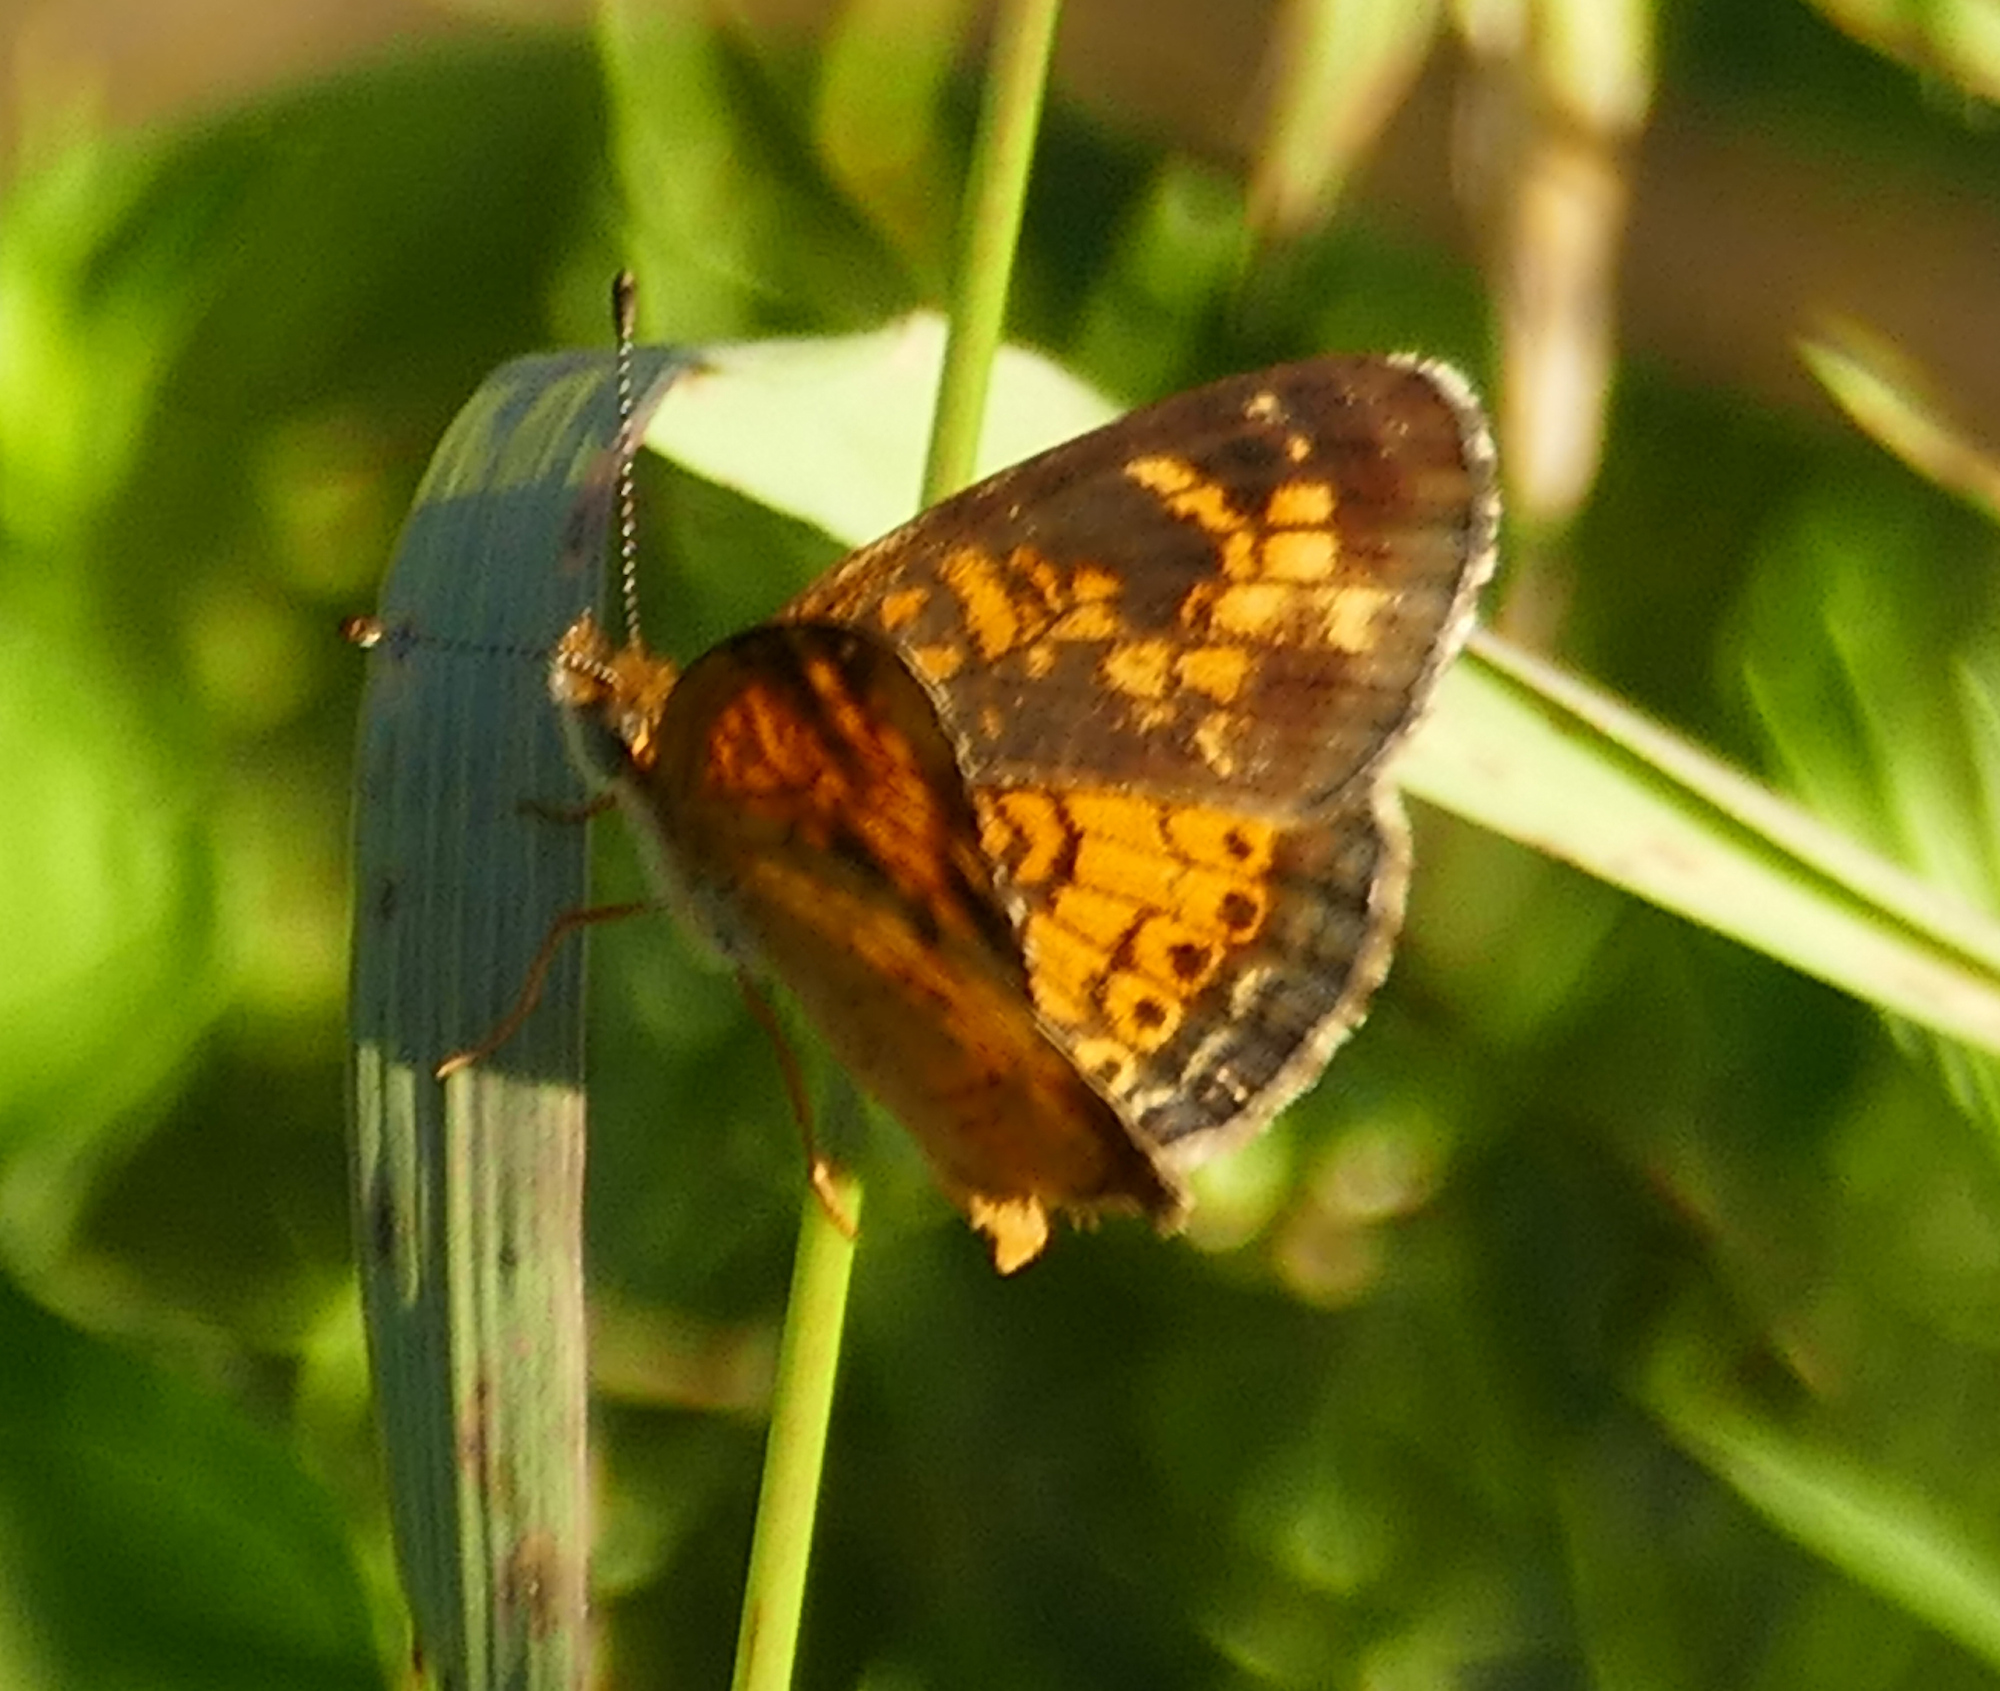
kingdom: Animalia
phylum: Arthropoda
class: Insecta
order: Lepidoptera
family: Nymphalidae
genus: Phyciodes
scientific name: Phyciodes tharos
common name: Pearl crescent
